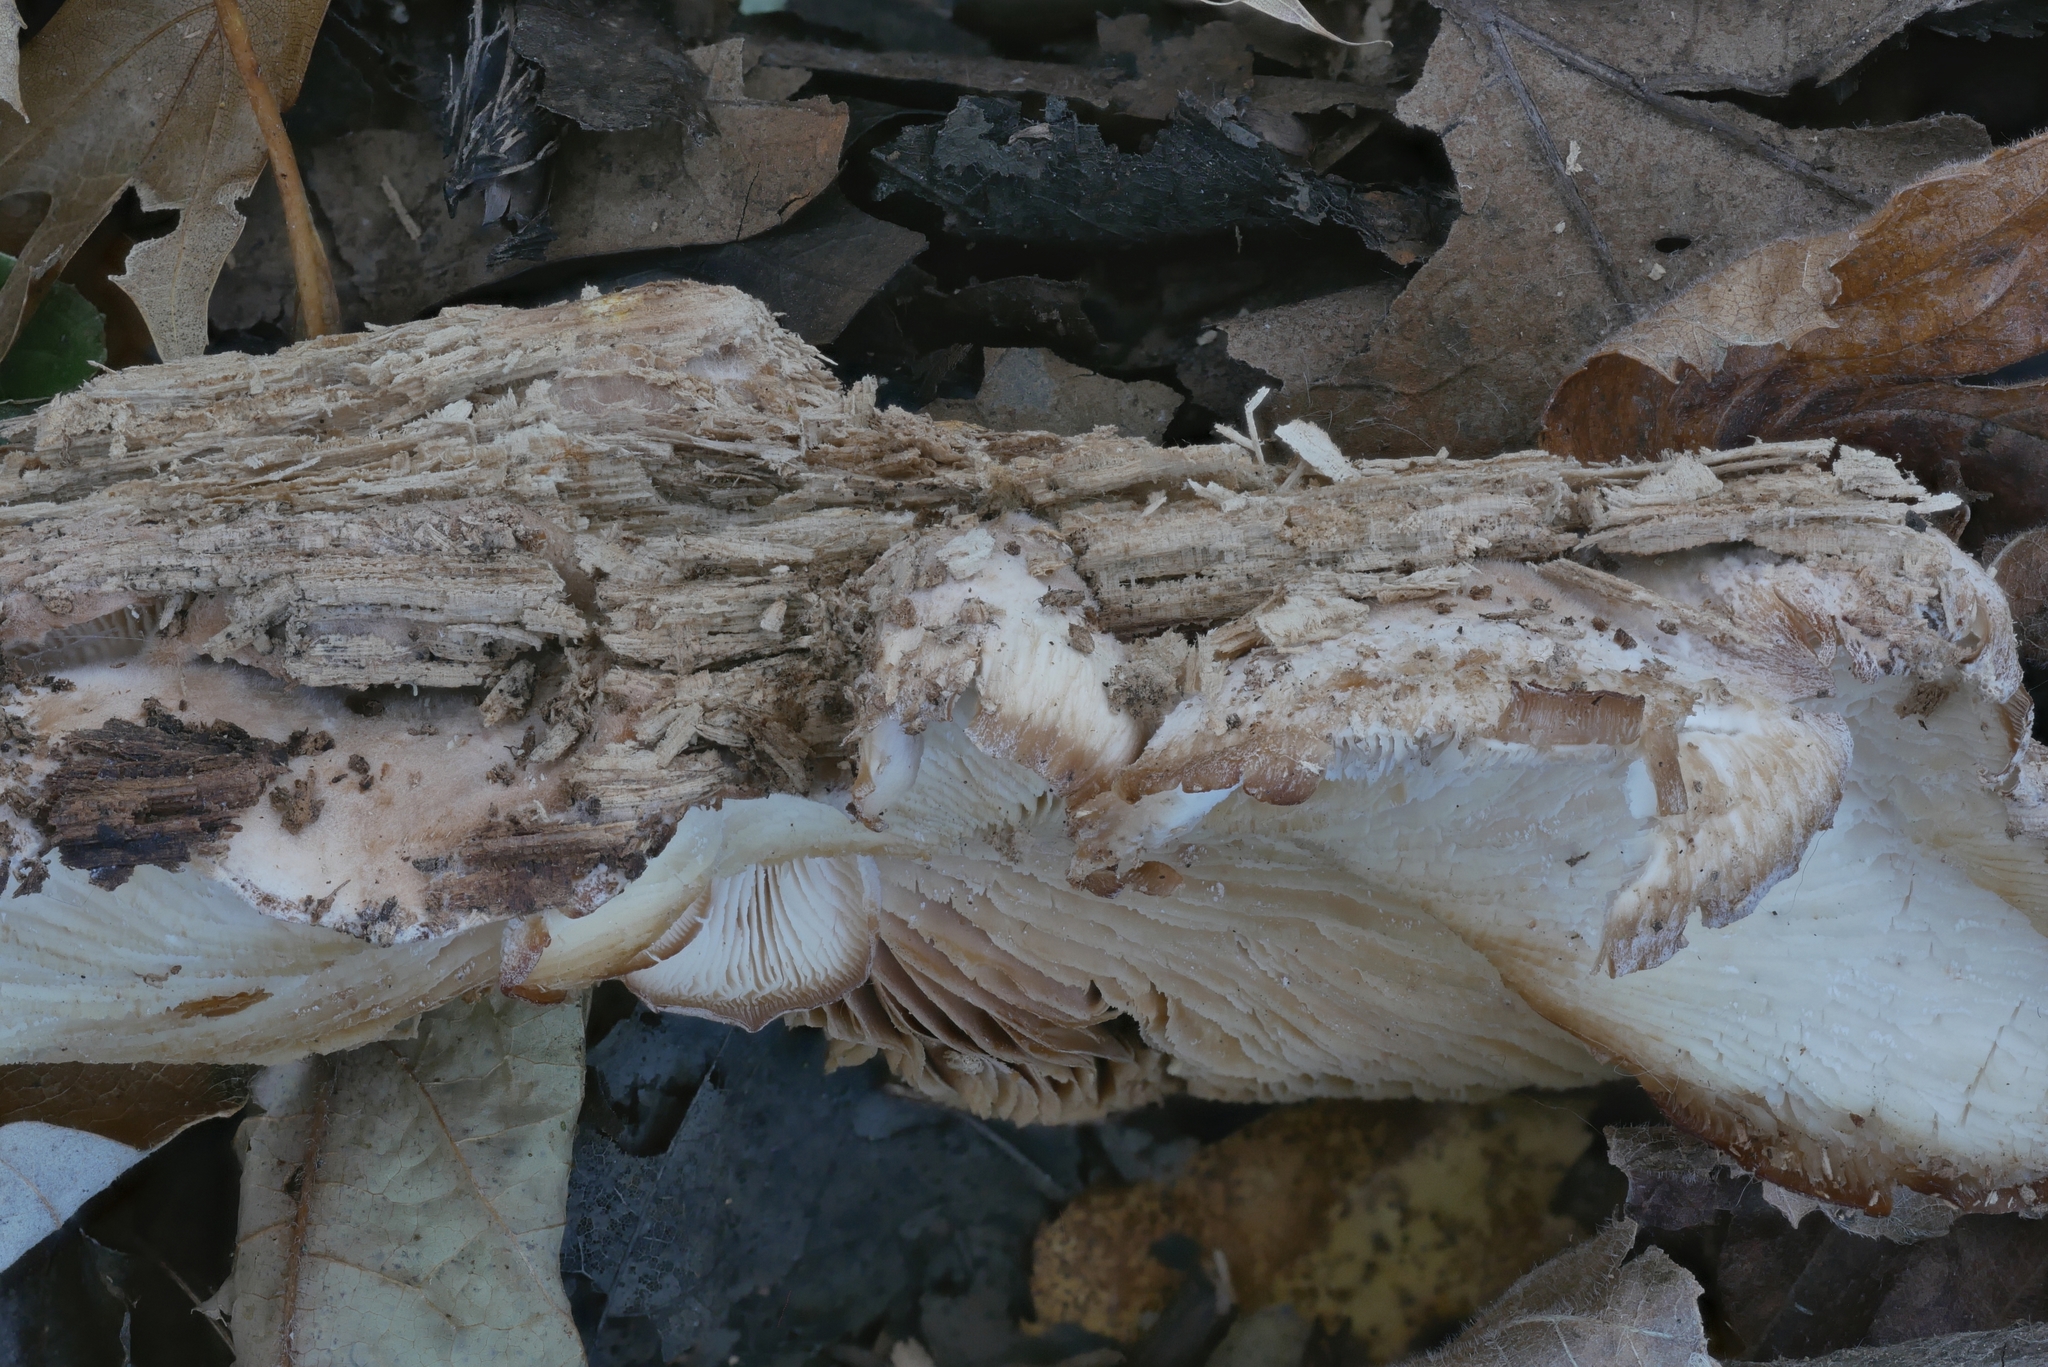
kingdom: Fungi
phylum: Basidiomycota
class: Agaricomycetes
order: Russulales
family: Auriscalpiaceae
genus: Lentinellus
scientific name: Lentinellus ursinus
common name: Bear lentinus
